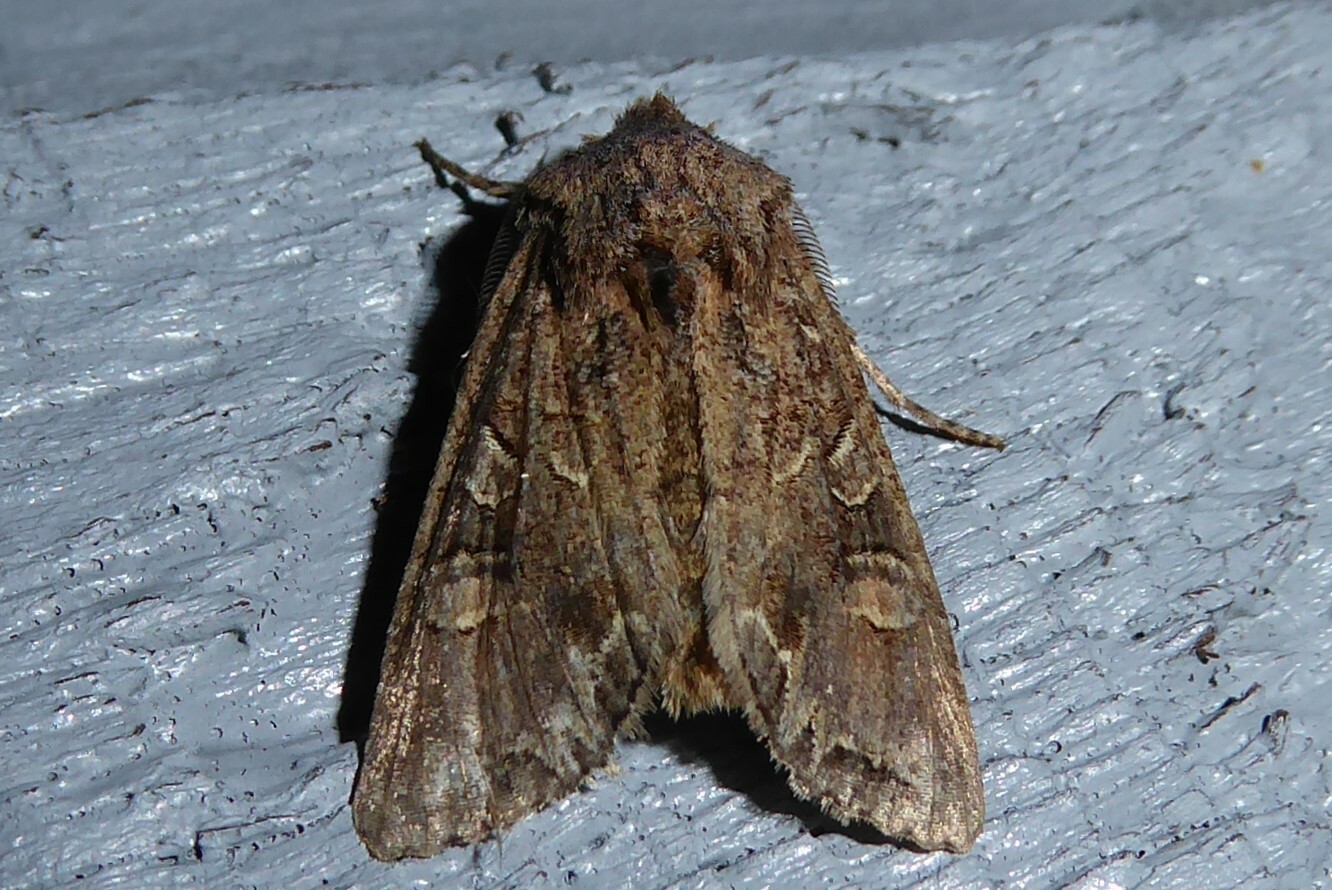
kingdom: Animalia
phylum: Arthropoda
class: Insecta
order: Lepidoptera
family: Noctuidae
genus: Ichneutica
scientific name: Ichneutica skelloni
